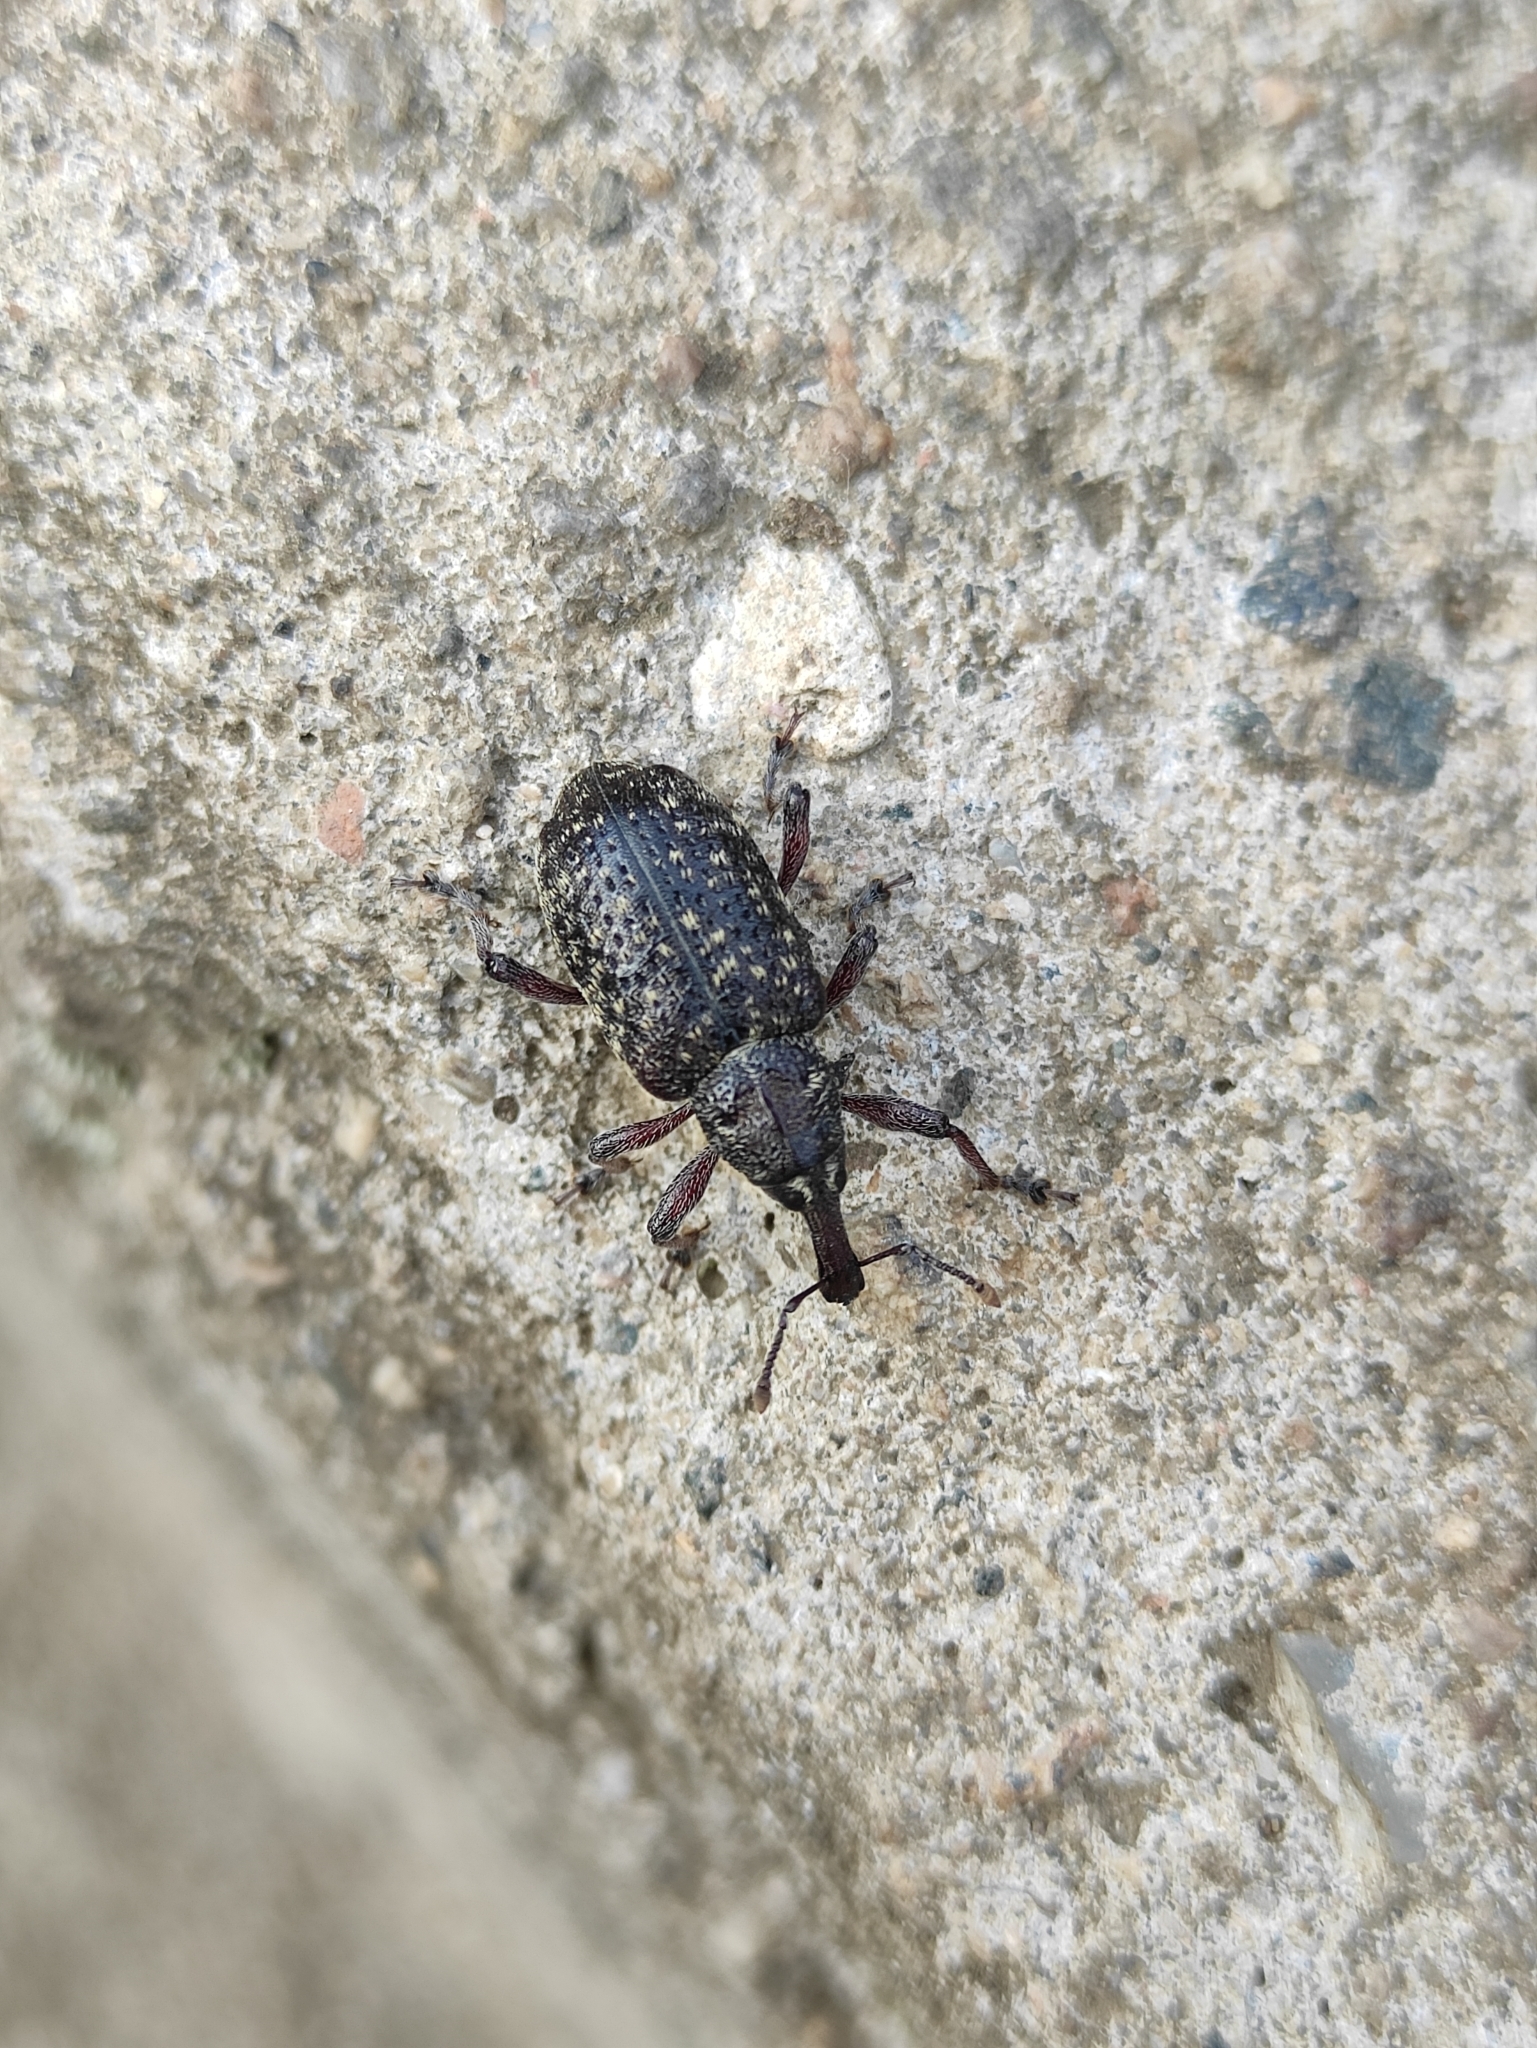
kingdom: Animalia
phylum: Arthropoda
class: Insecta
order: Coleoptera
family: Curculionidae
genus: Hylobius
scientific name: Hylobius excavatus
